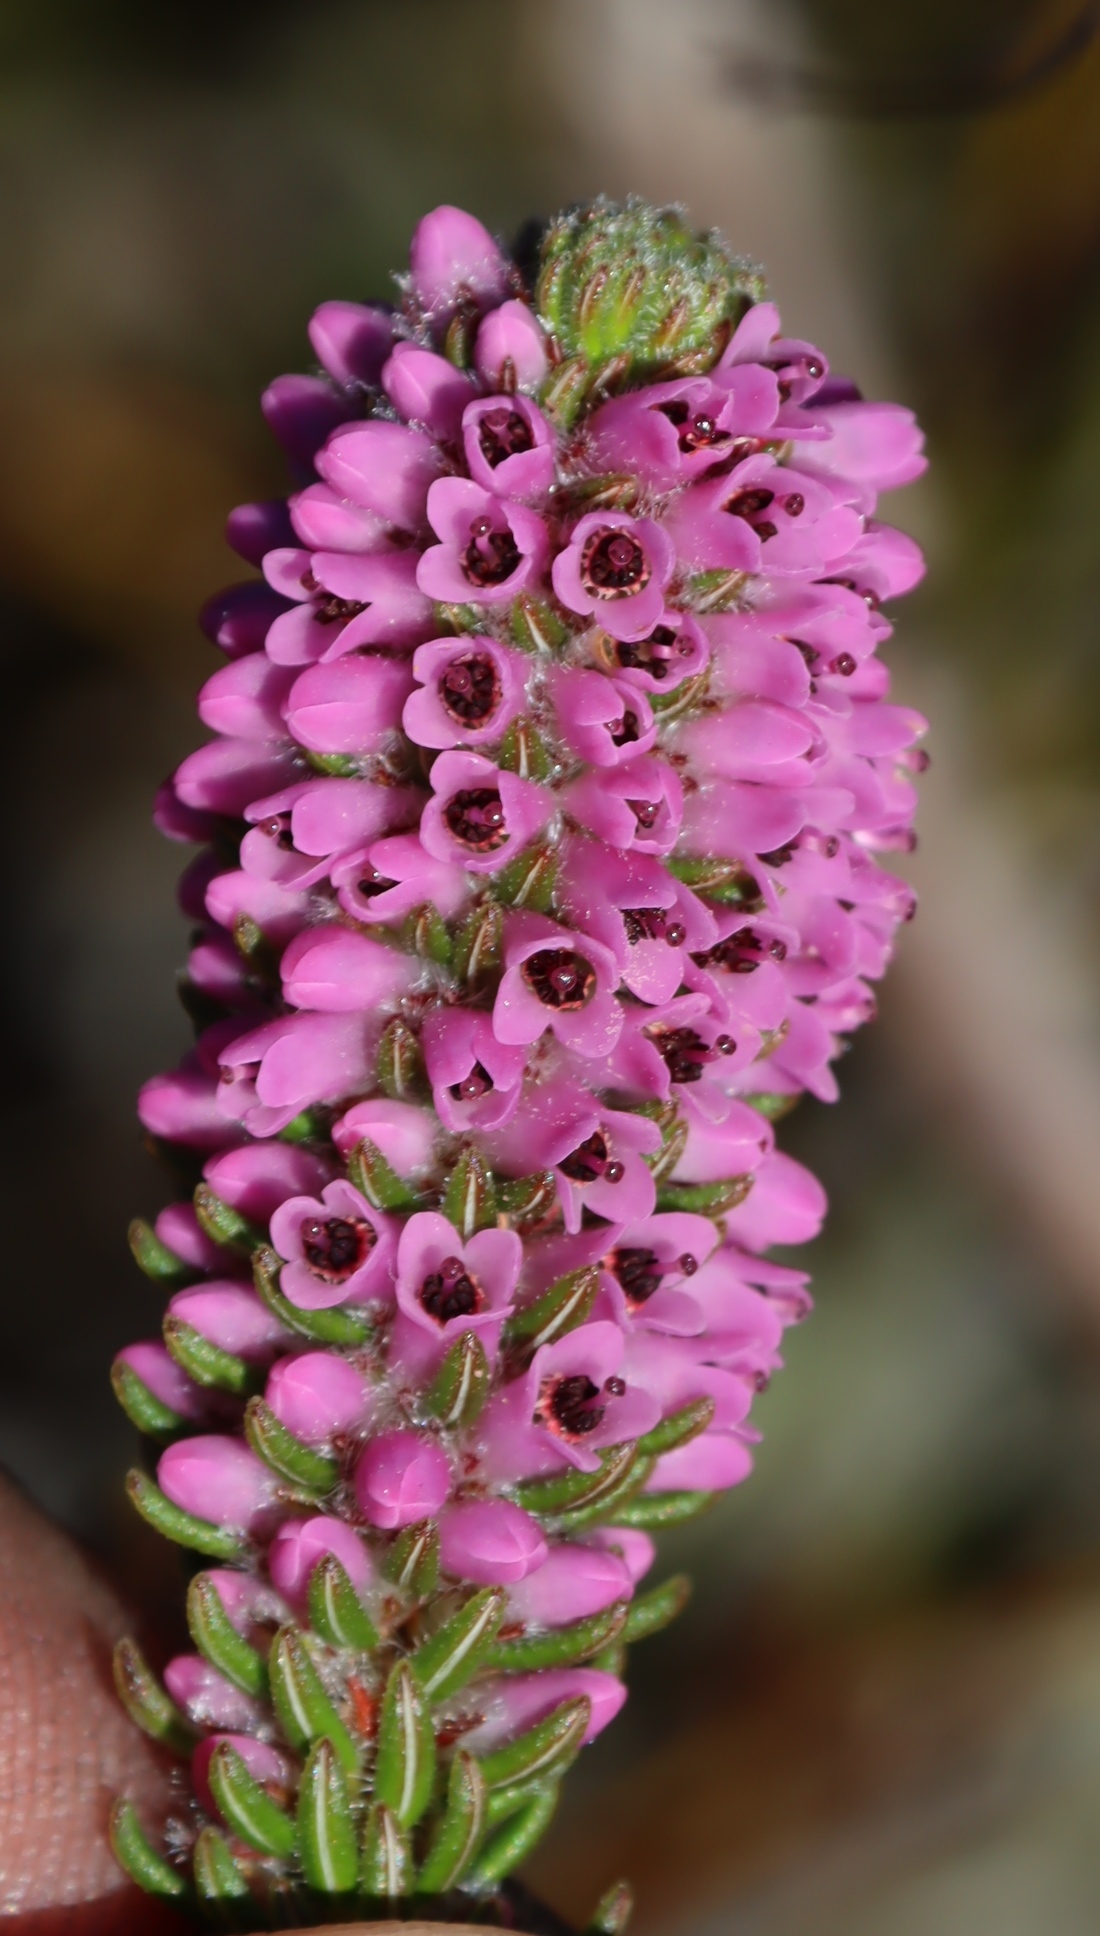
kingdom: Plantae
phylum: Tracheophyta
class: Magnoliopsida
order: Ericales
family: Ericaceae
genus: Erica
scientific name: Erica empetrina
